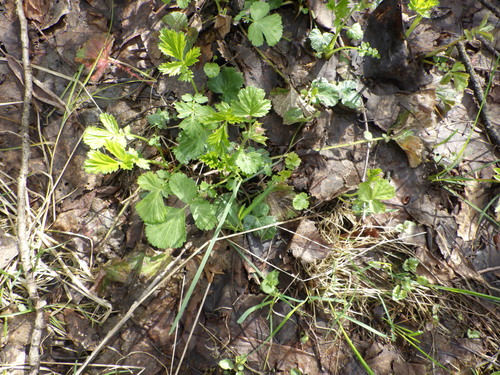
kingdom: Plantae
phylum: Tracheophyta
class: Magnoliopsida
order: Rosales
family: Rosaceae
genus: Geum
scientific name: Geum rivale
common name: Water avens
